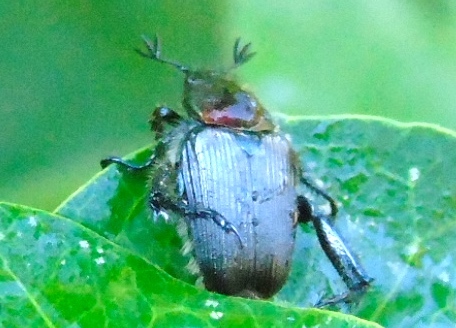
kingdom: Animalia
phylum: Arthropoda
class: Insecta
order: Coleoptera
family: Scarabaeidae
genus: Strigoderma
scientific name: Strigoderma
